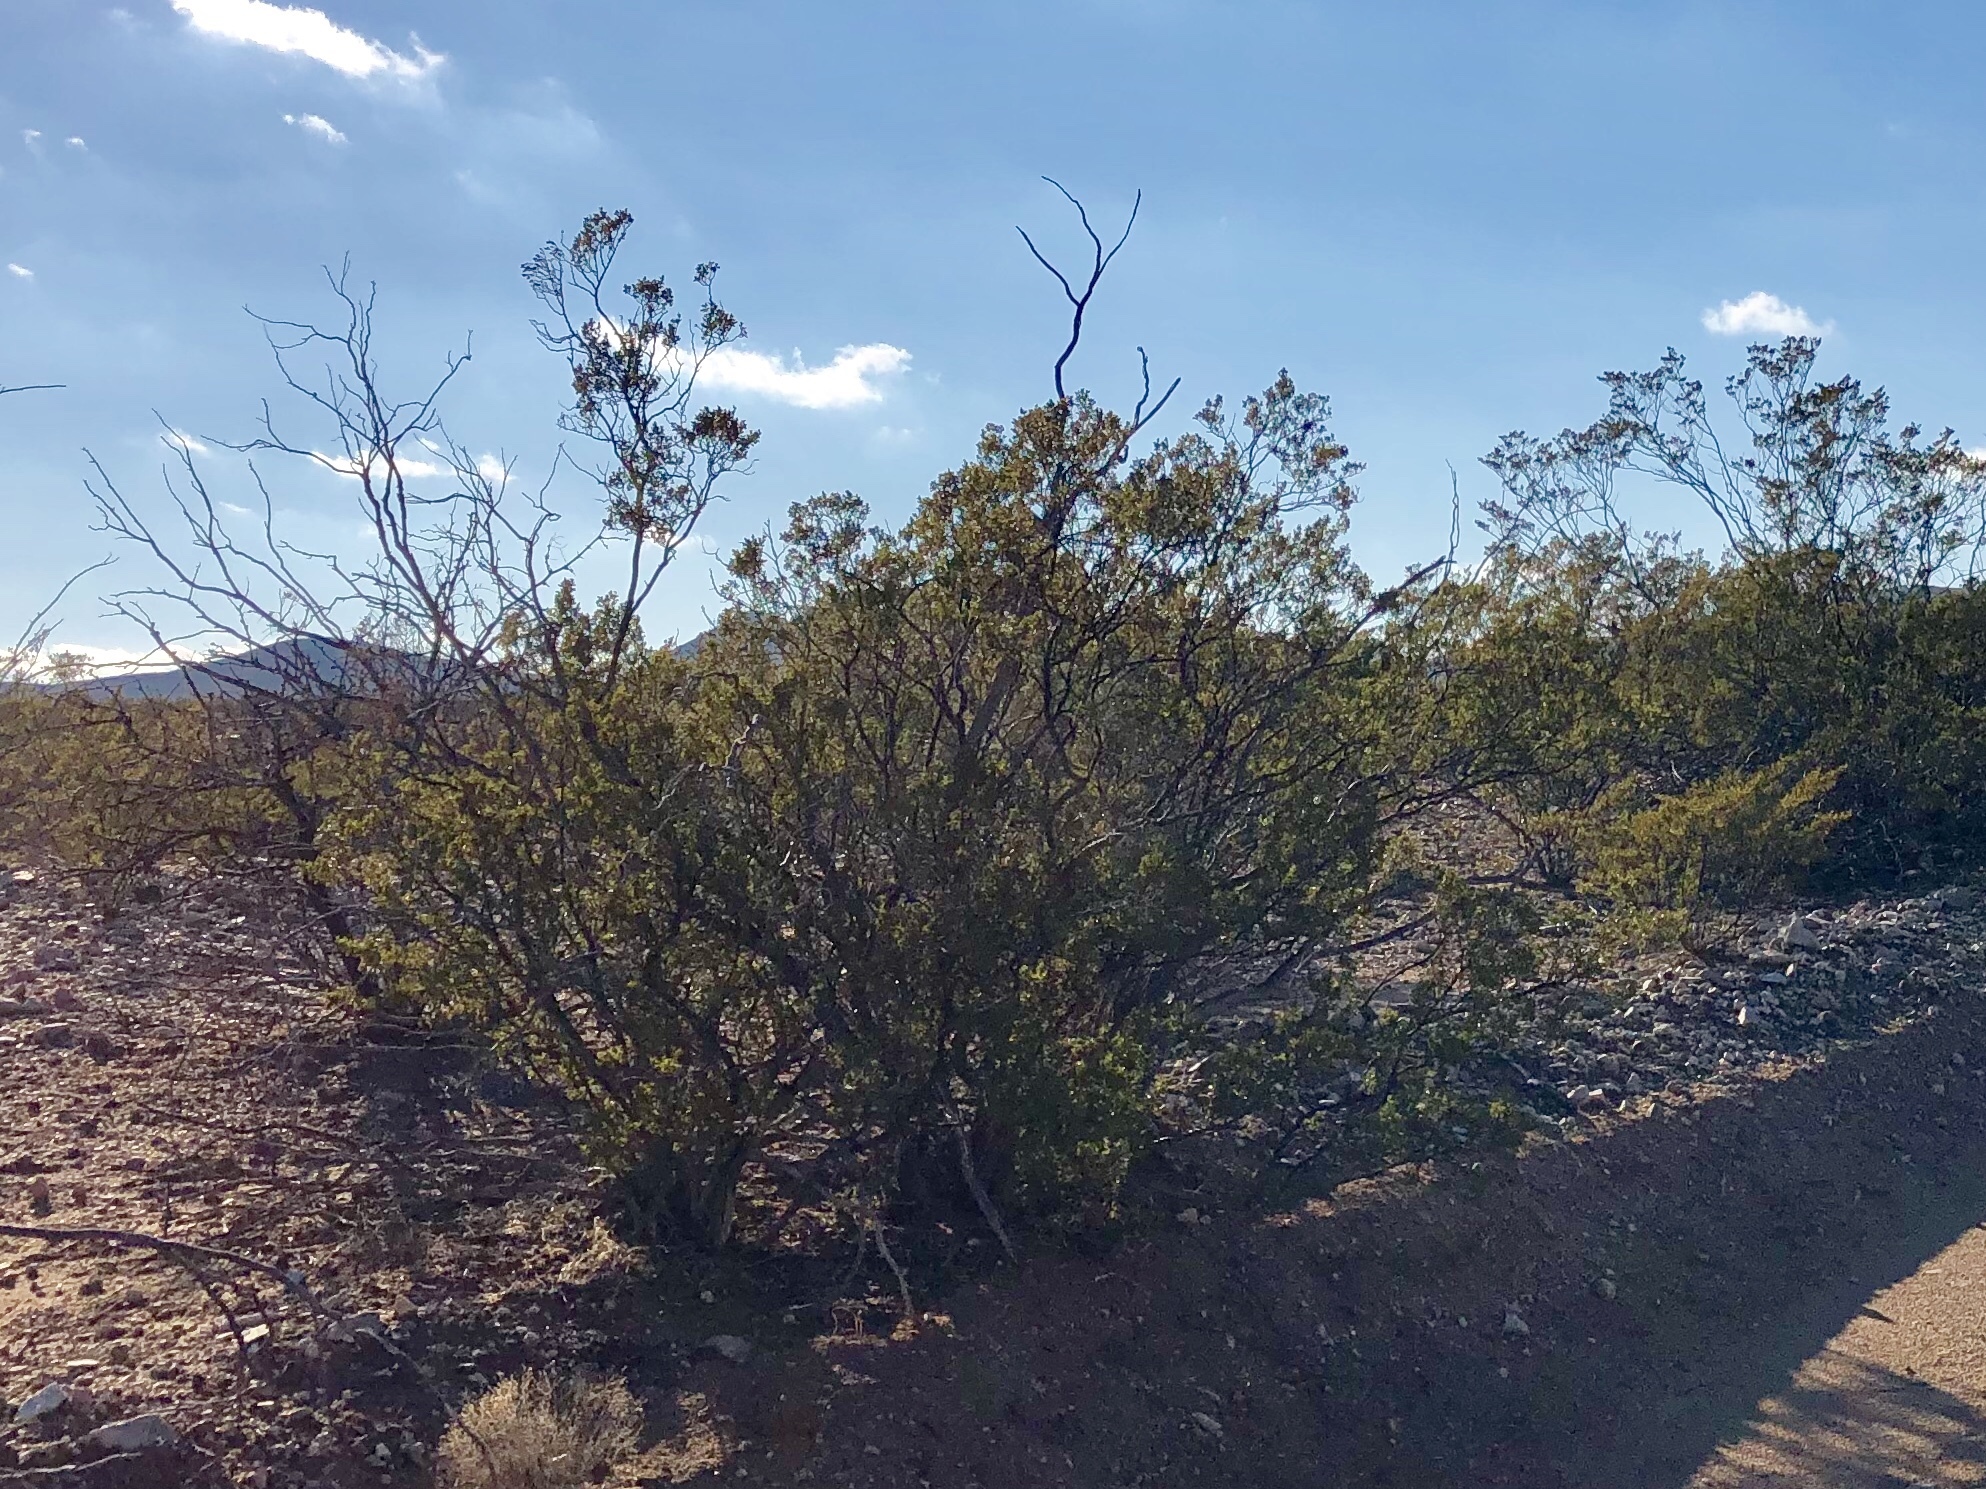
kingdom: Plantae
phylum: Tracheophyta
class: Magnoliopsida
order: Zygophyllales
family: Zygophyllaceae
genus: Larrea
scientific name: Larrea tridentata
